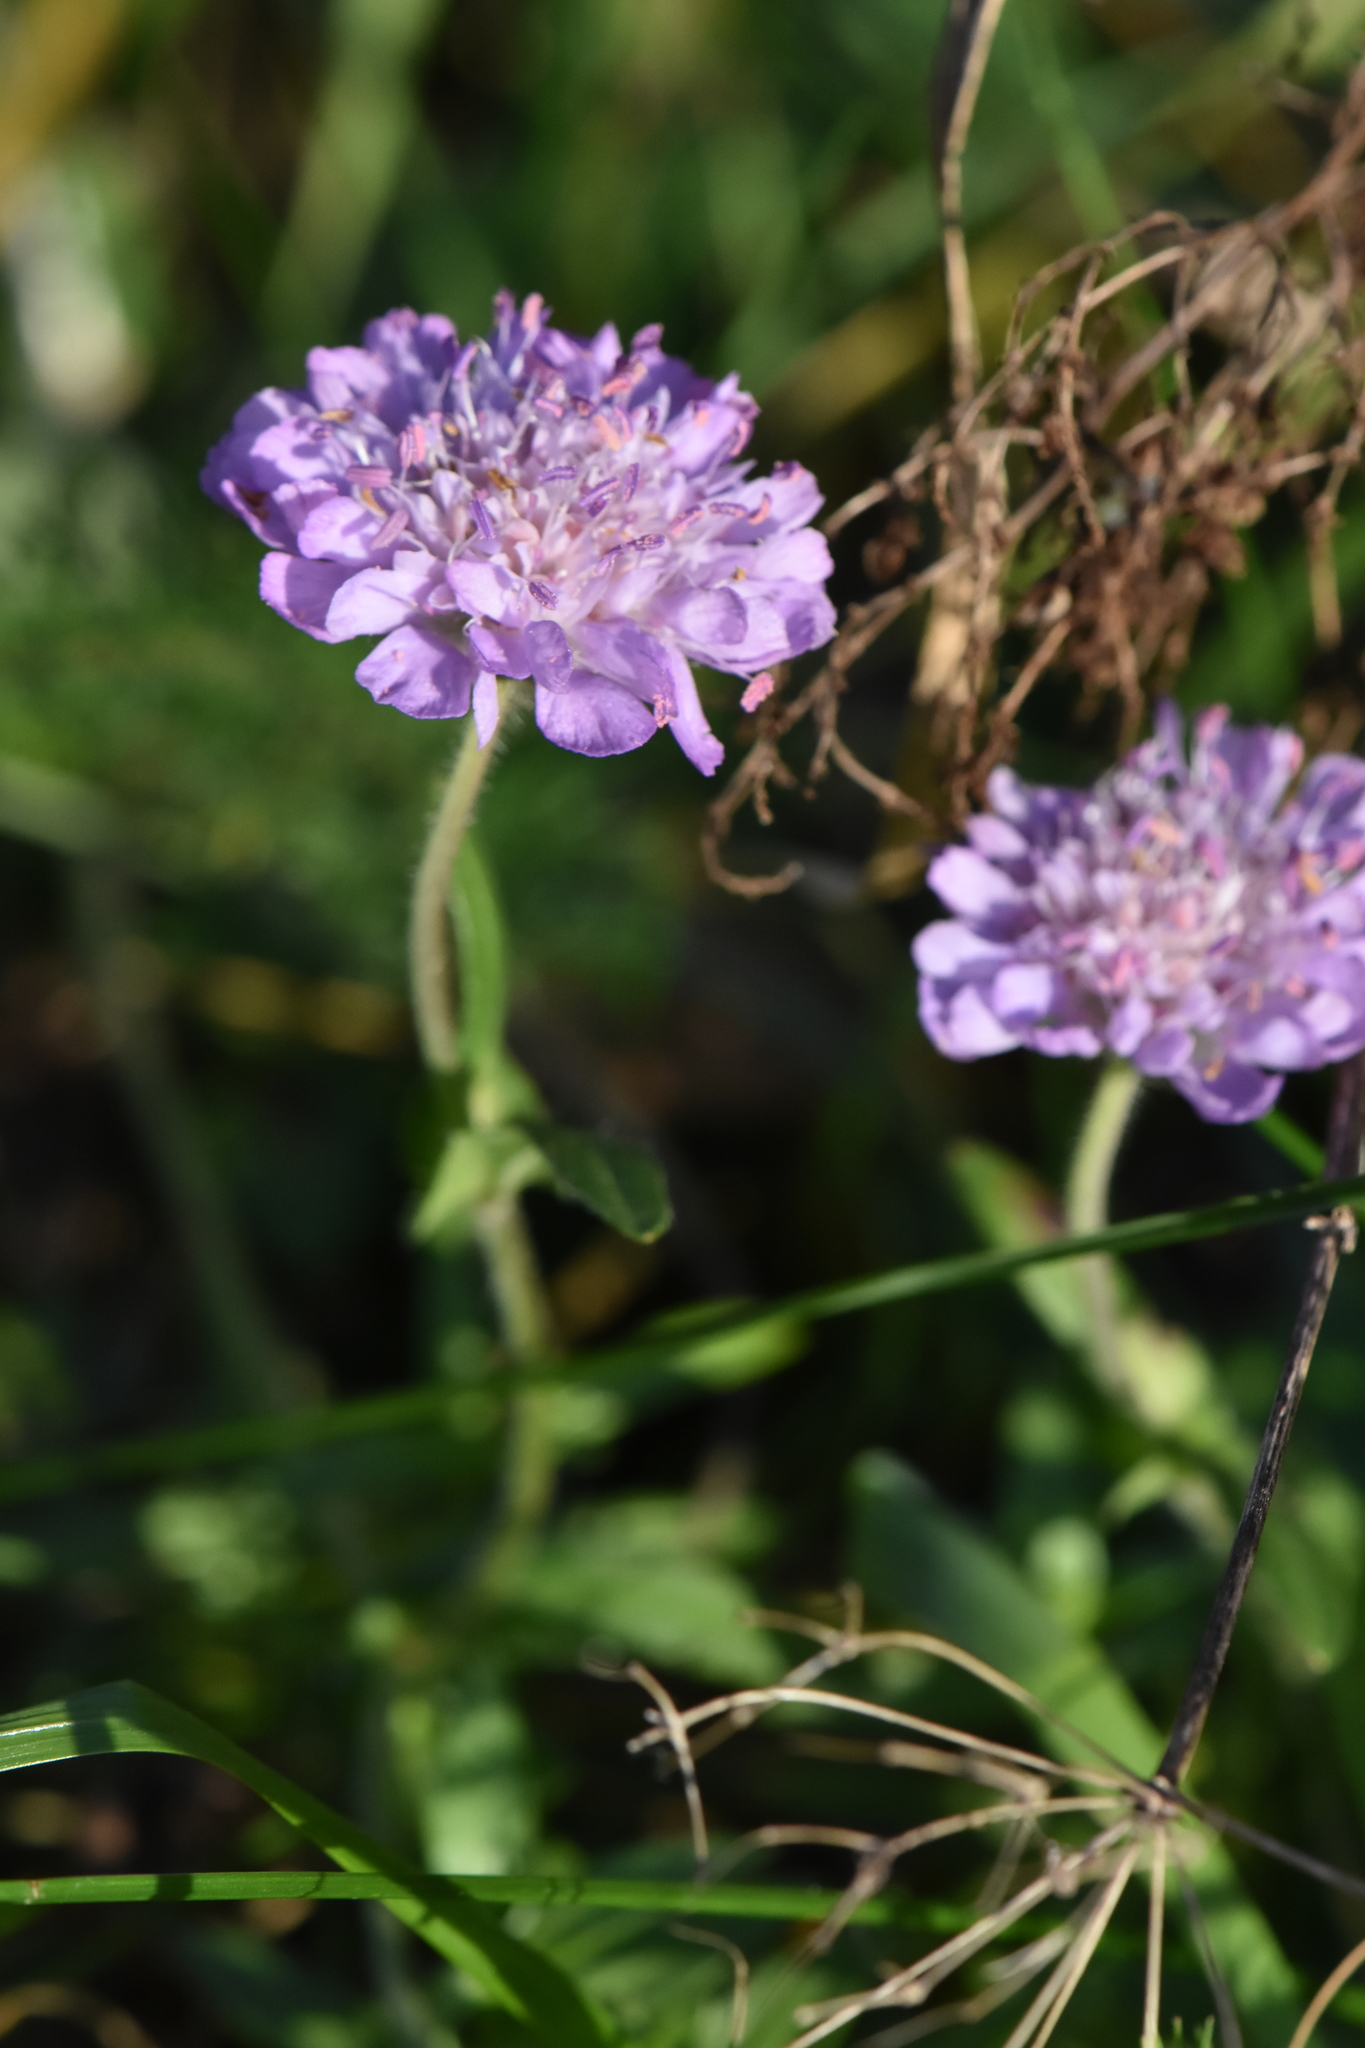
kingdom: Plantae
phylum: Tracheophyta
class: Magnoliopsida
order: Dipsacales
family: Caprifoliaceae
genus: Knautia
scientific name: Knautia arvensis
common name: Field scabiosa
